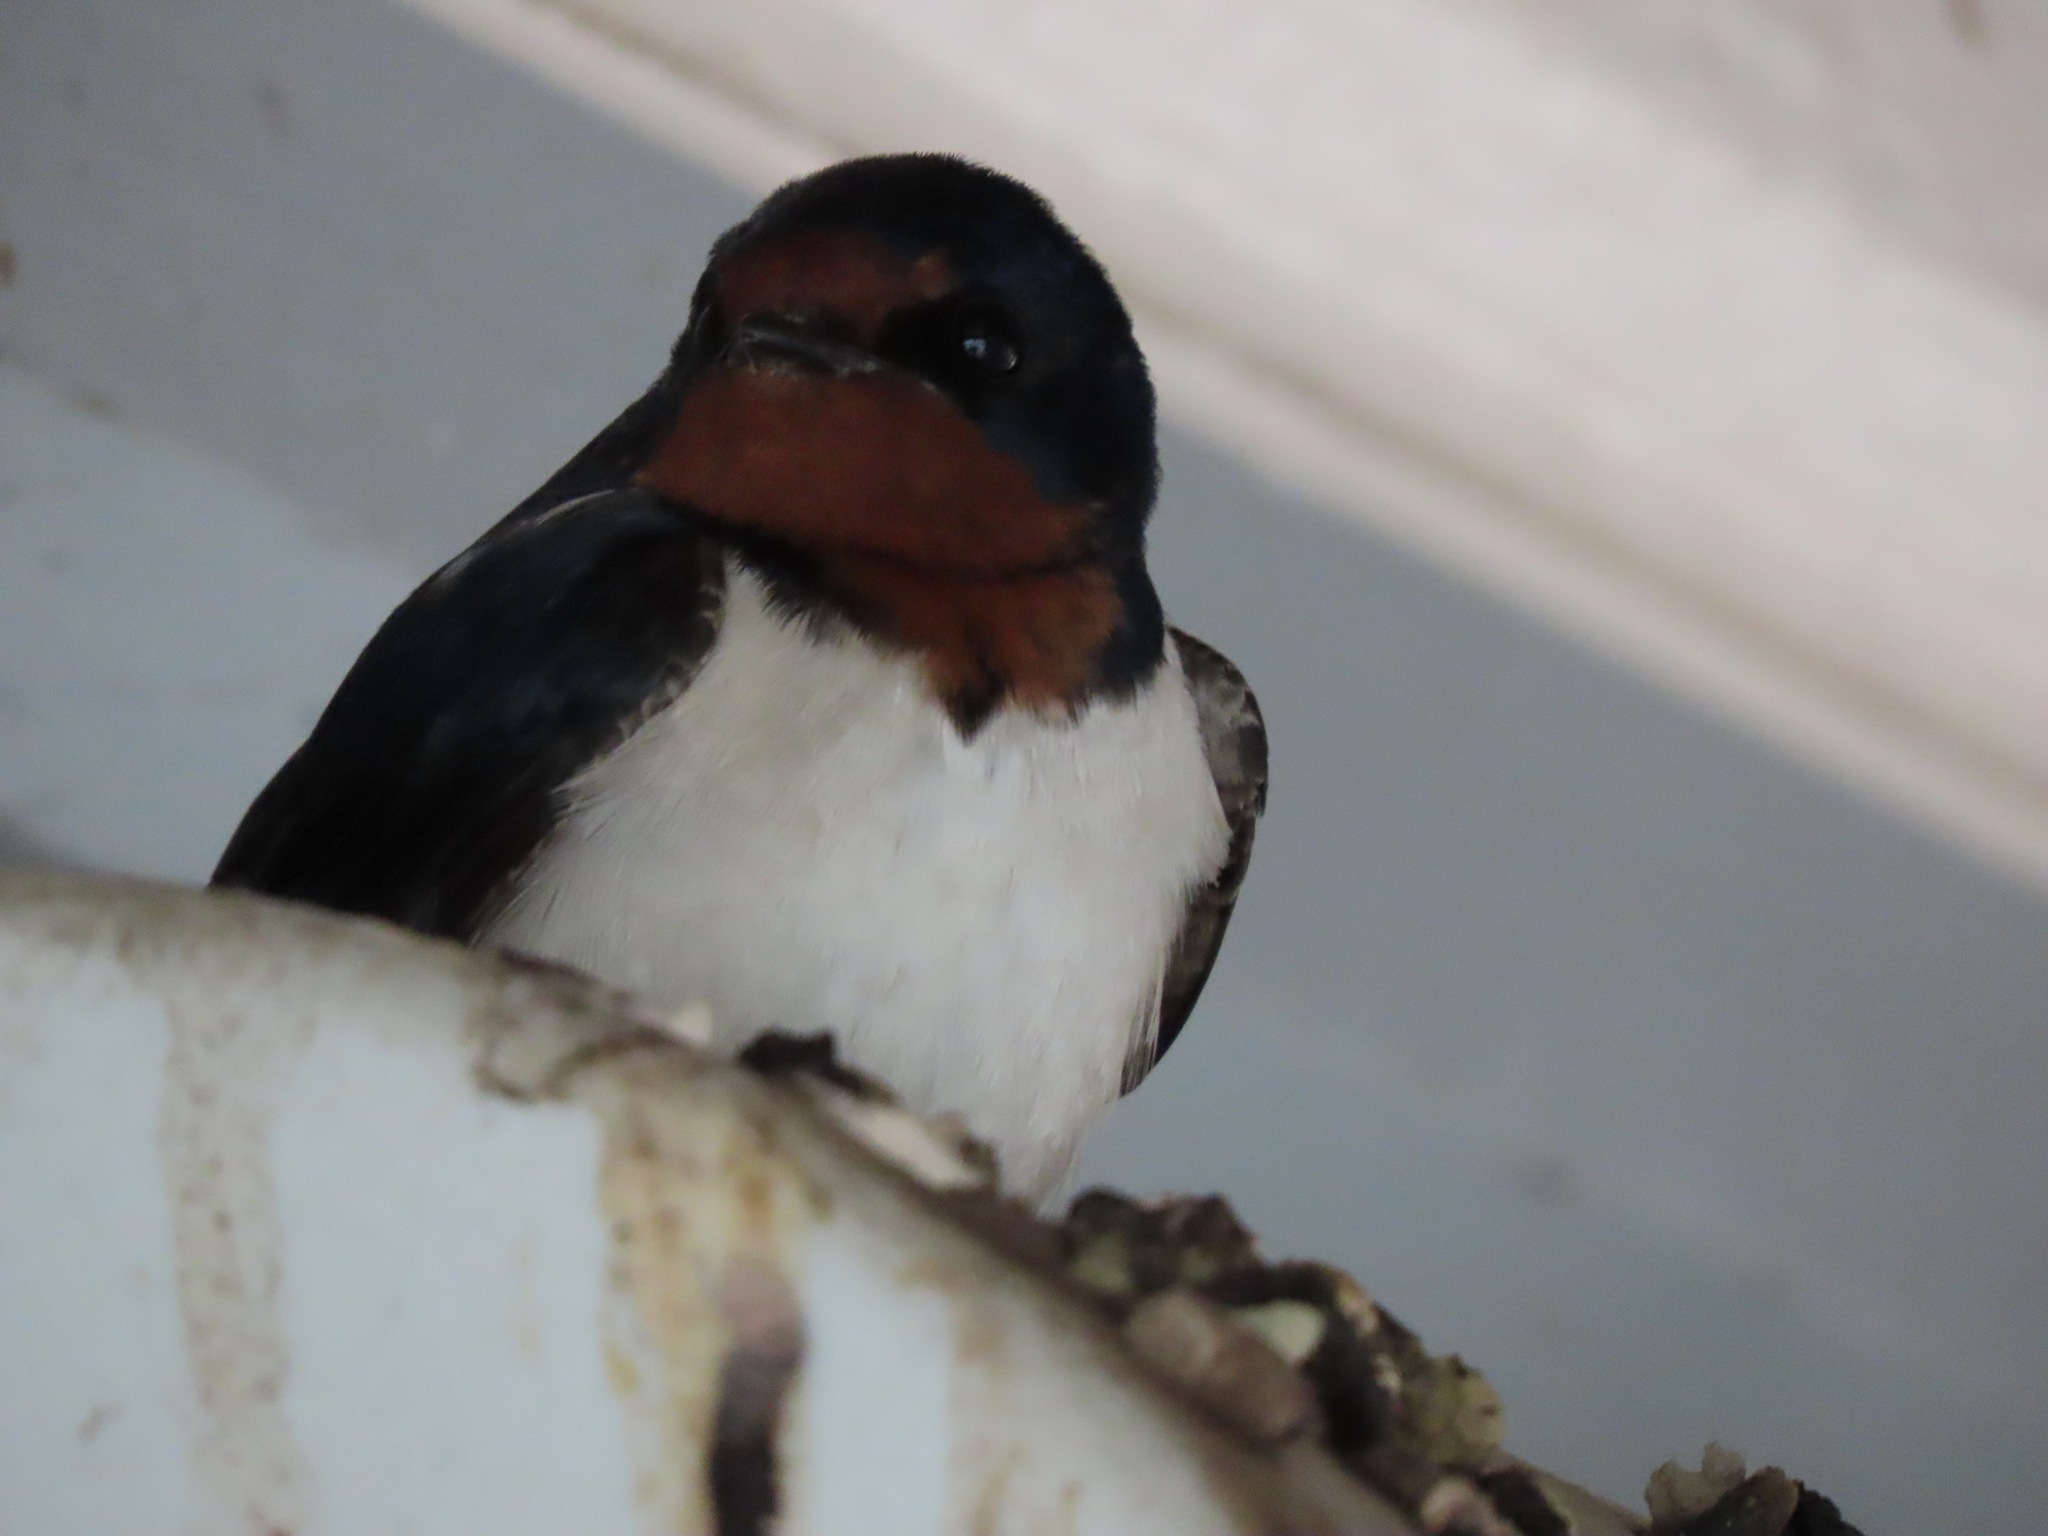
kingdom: Animalia
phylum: Chordata
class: Aves
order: Passeriformes
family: Hirundinidae
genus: Hirundo
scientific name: Hirundo rustica
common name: Barn swallow
